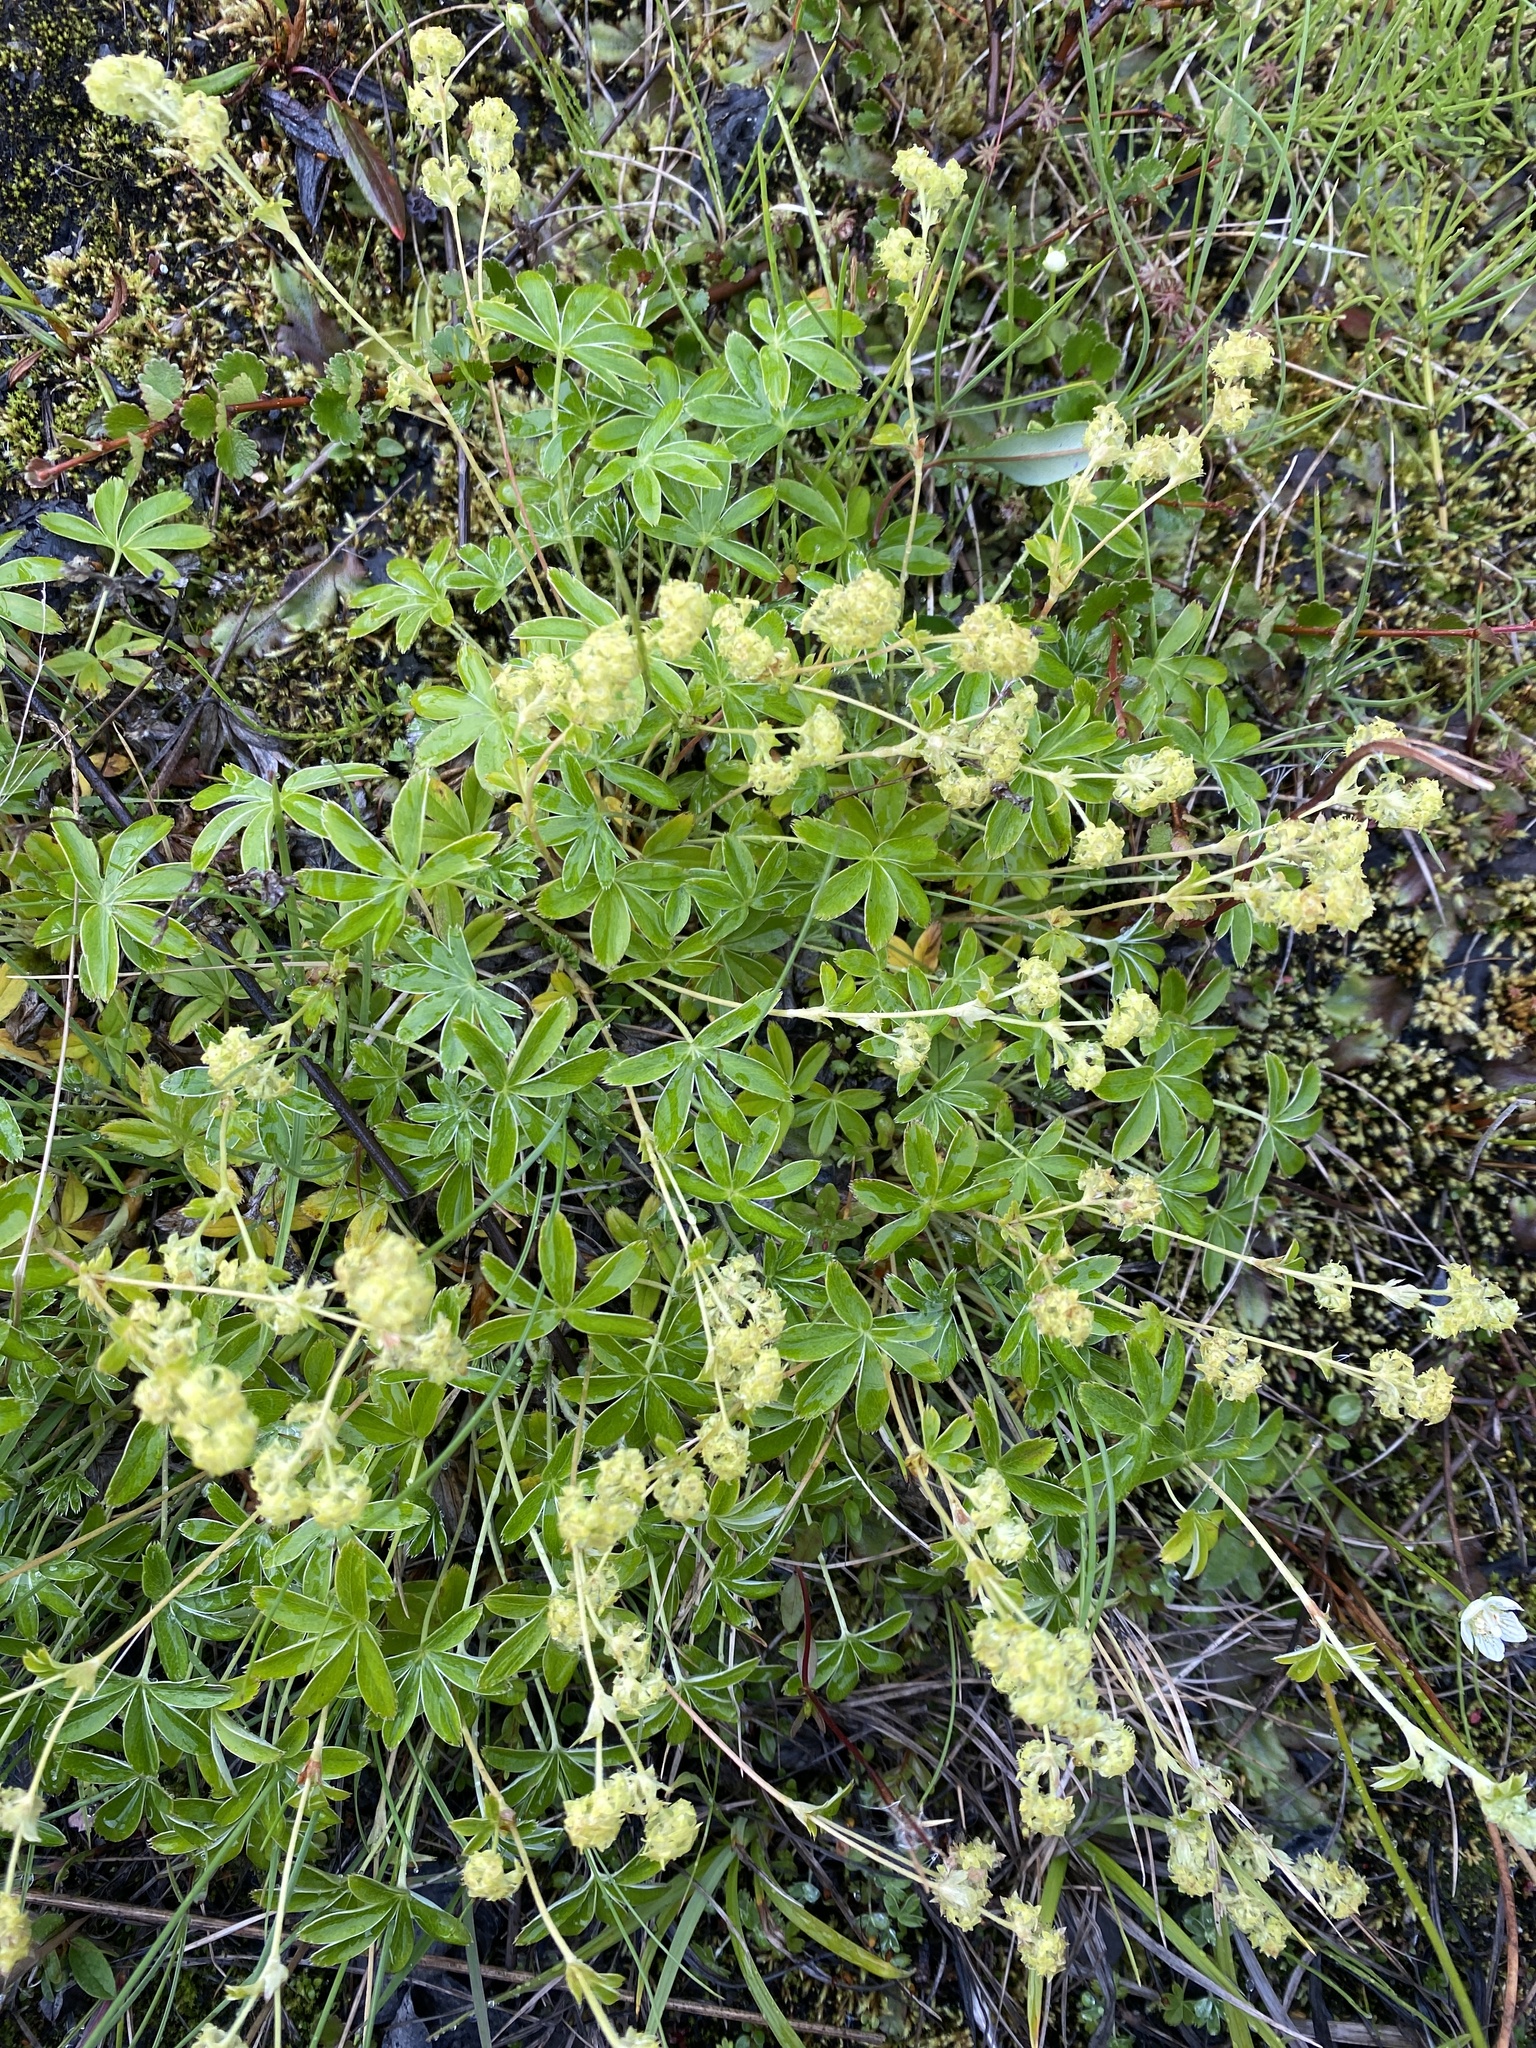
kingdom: Plantae
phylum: Tracheophyta
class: Magnoliopsida
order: Rosales
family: Rosaceae
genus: Alchemilla
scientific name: Alchemilla alpina
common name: Alpine lady's-mantle
